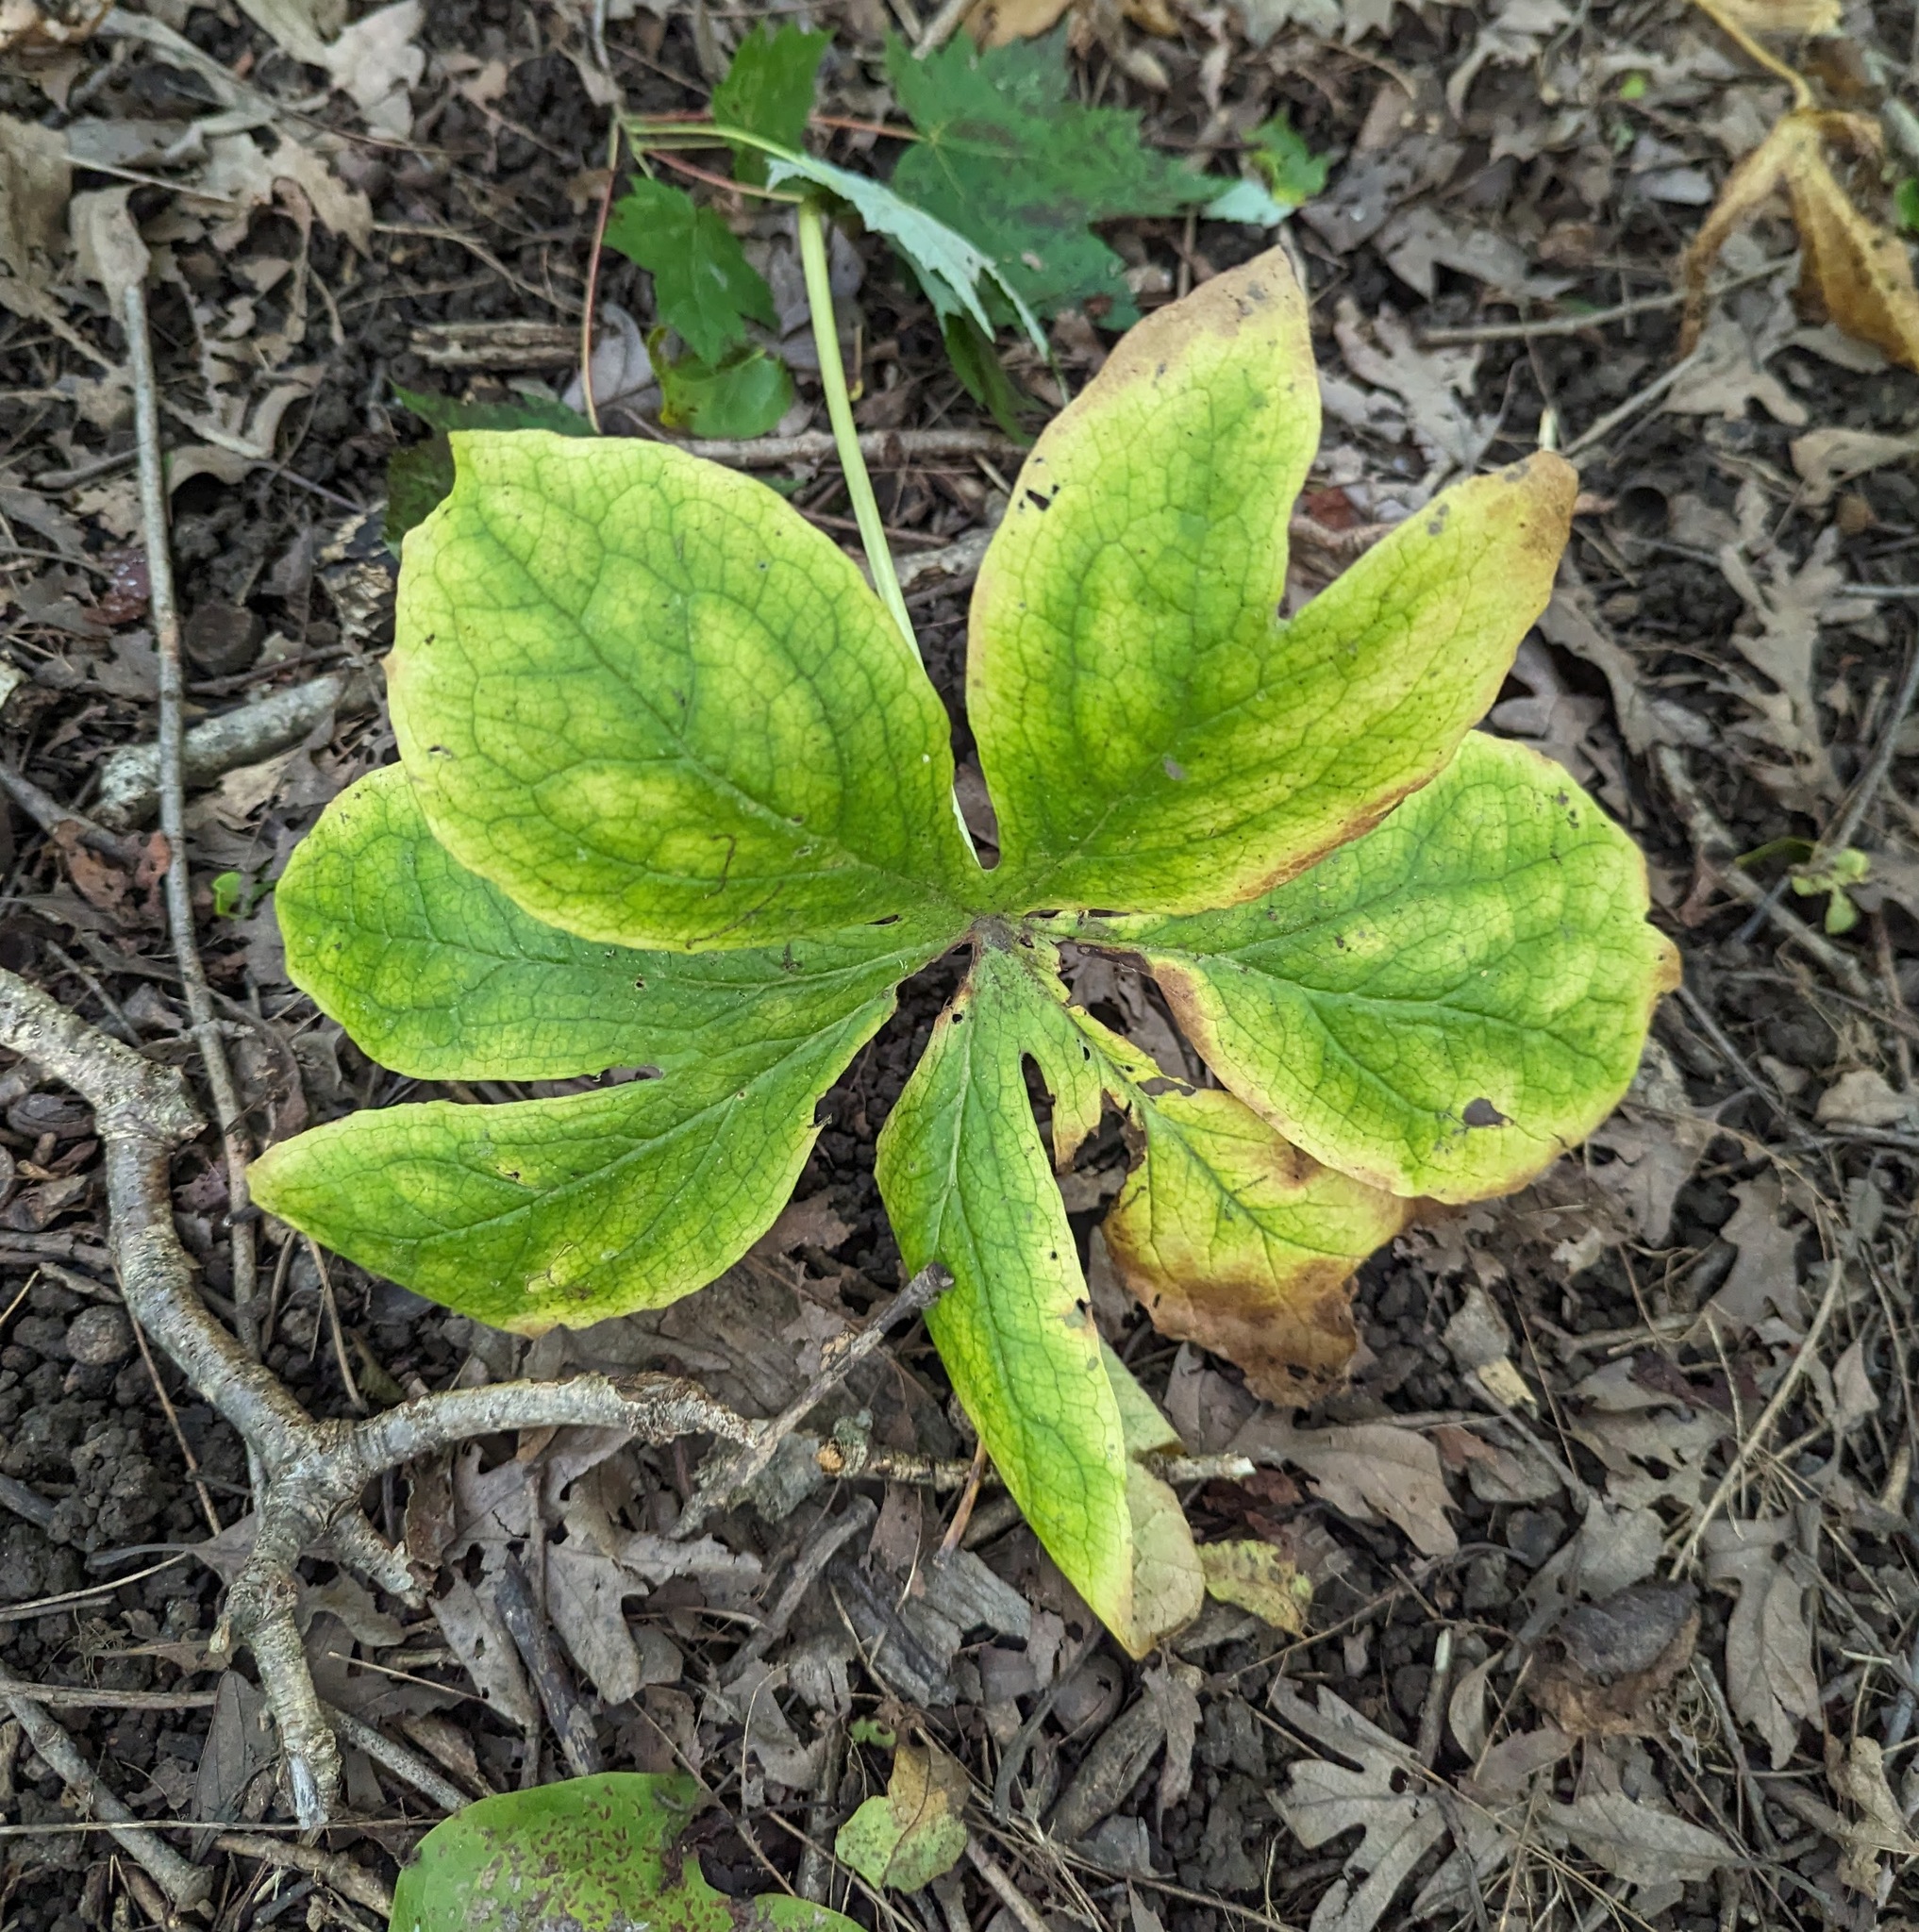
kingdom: Plantae
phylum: Tracheophyta
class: Magnoliopsida
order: Ranunculales
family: Berberidaceae
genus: Podophyllum
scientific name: Podophyllum peltatum
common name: Wild mandrake
